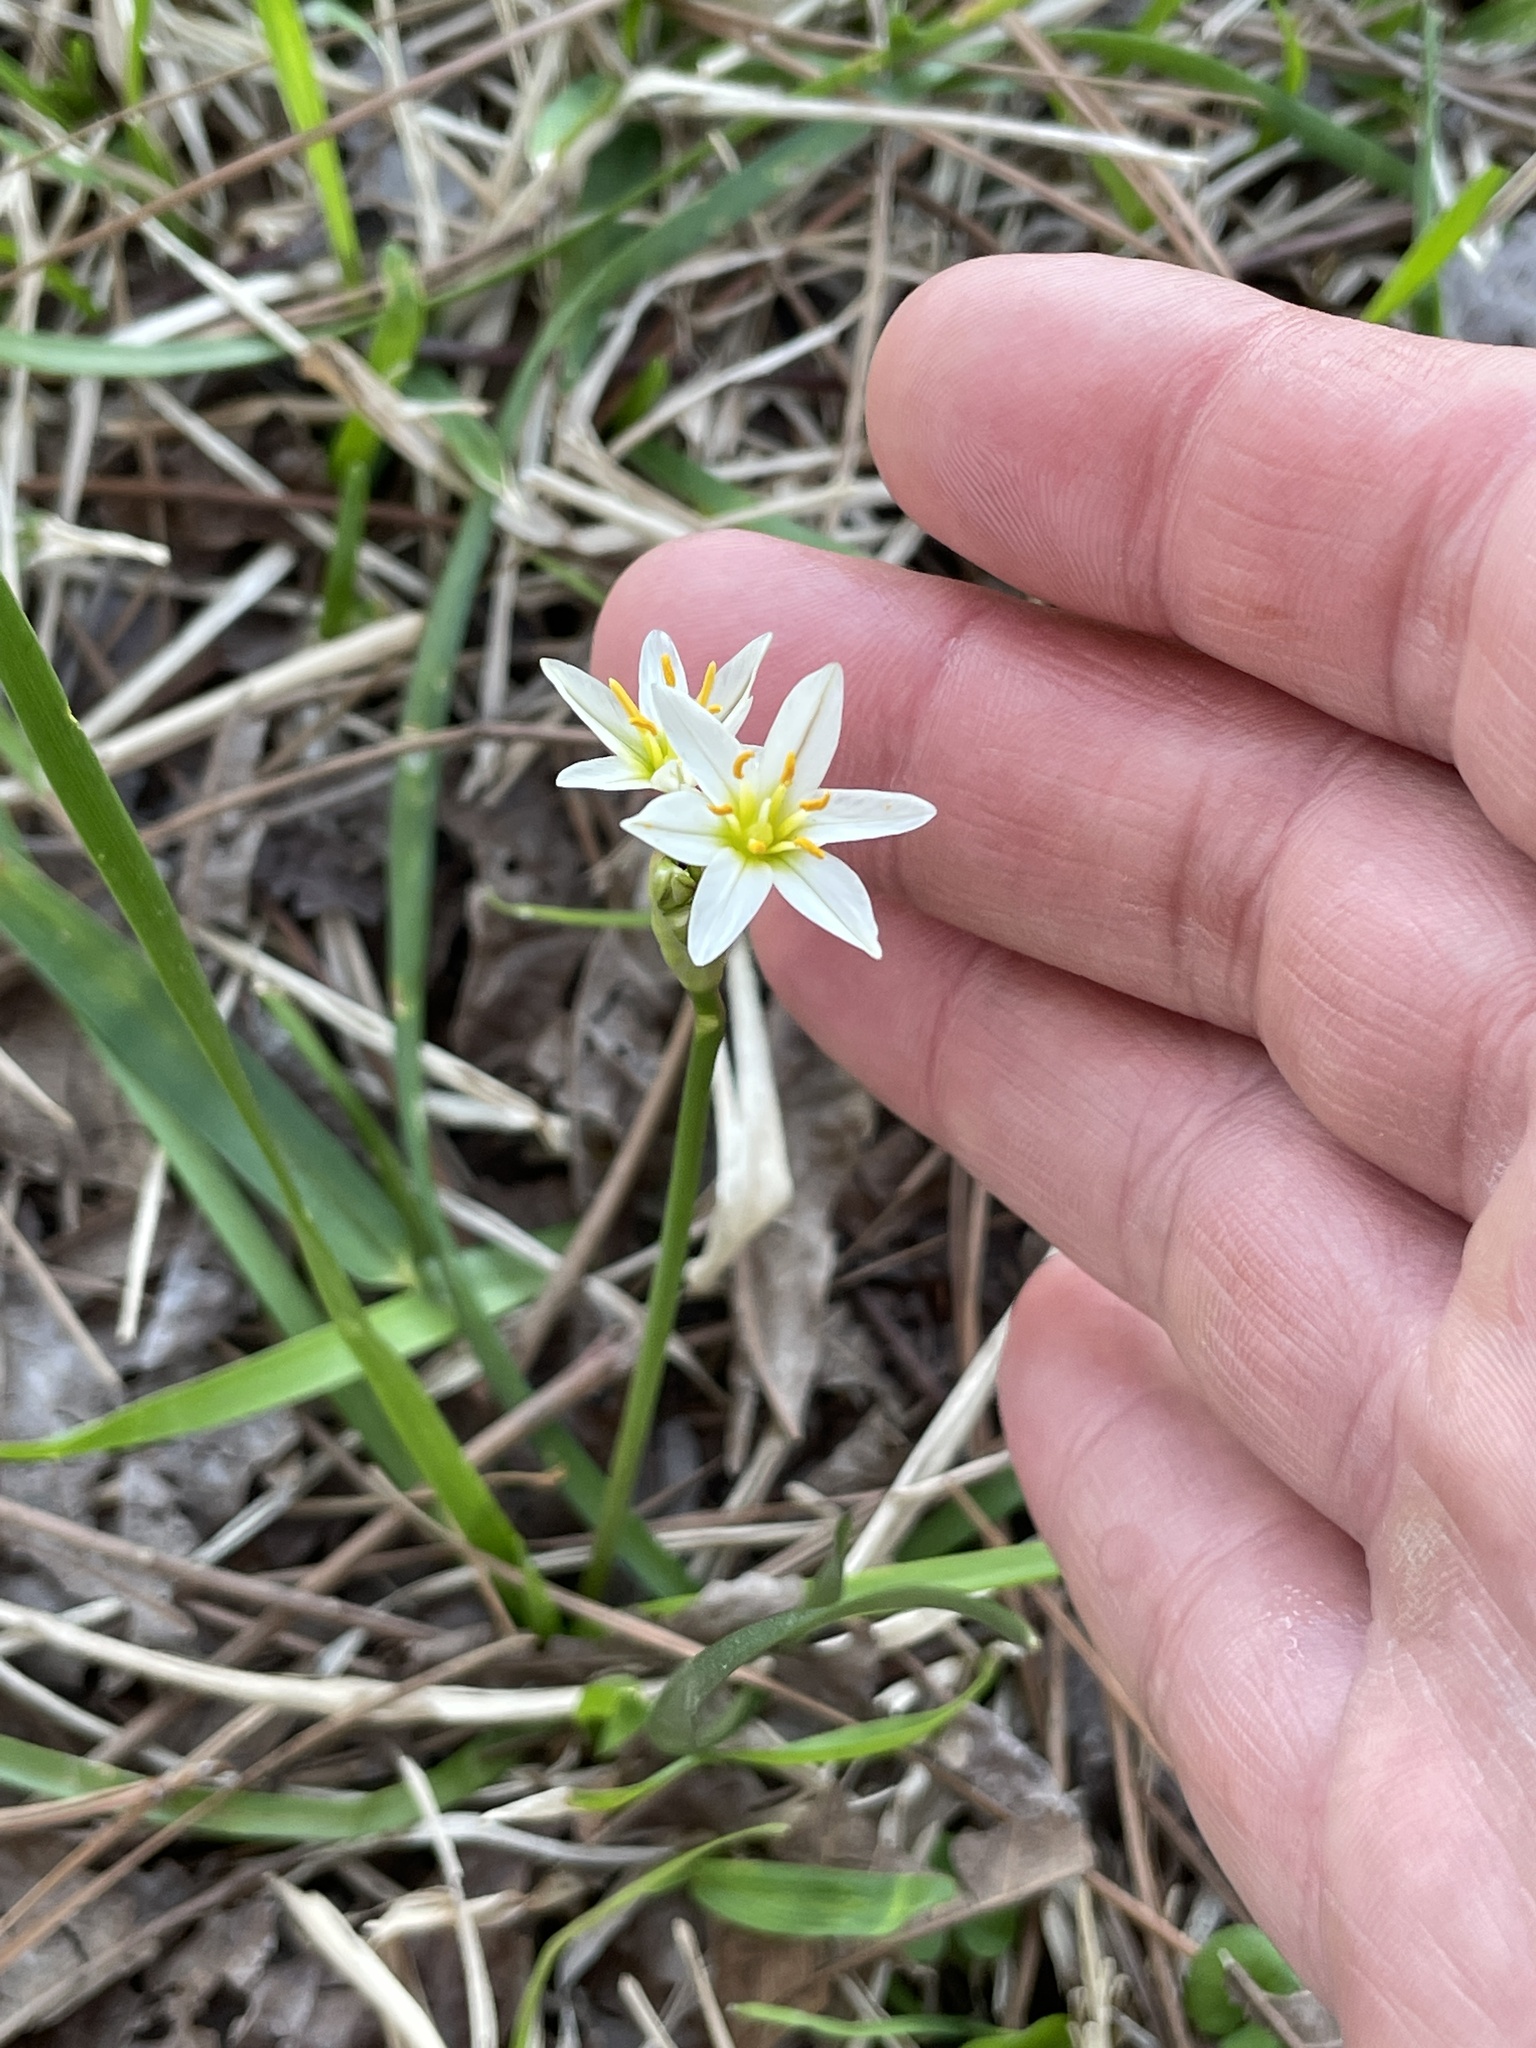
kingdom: Plantae
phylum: Tracheophyta
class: Liliopsida
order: Asparagales
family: Amaryllidaceae
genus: Nothoscordum
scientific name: Nothoscordum bivalve
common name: Crow-poison
